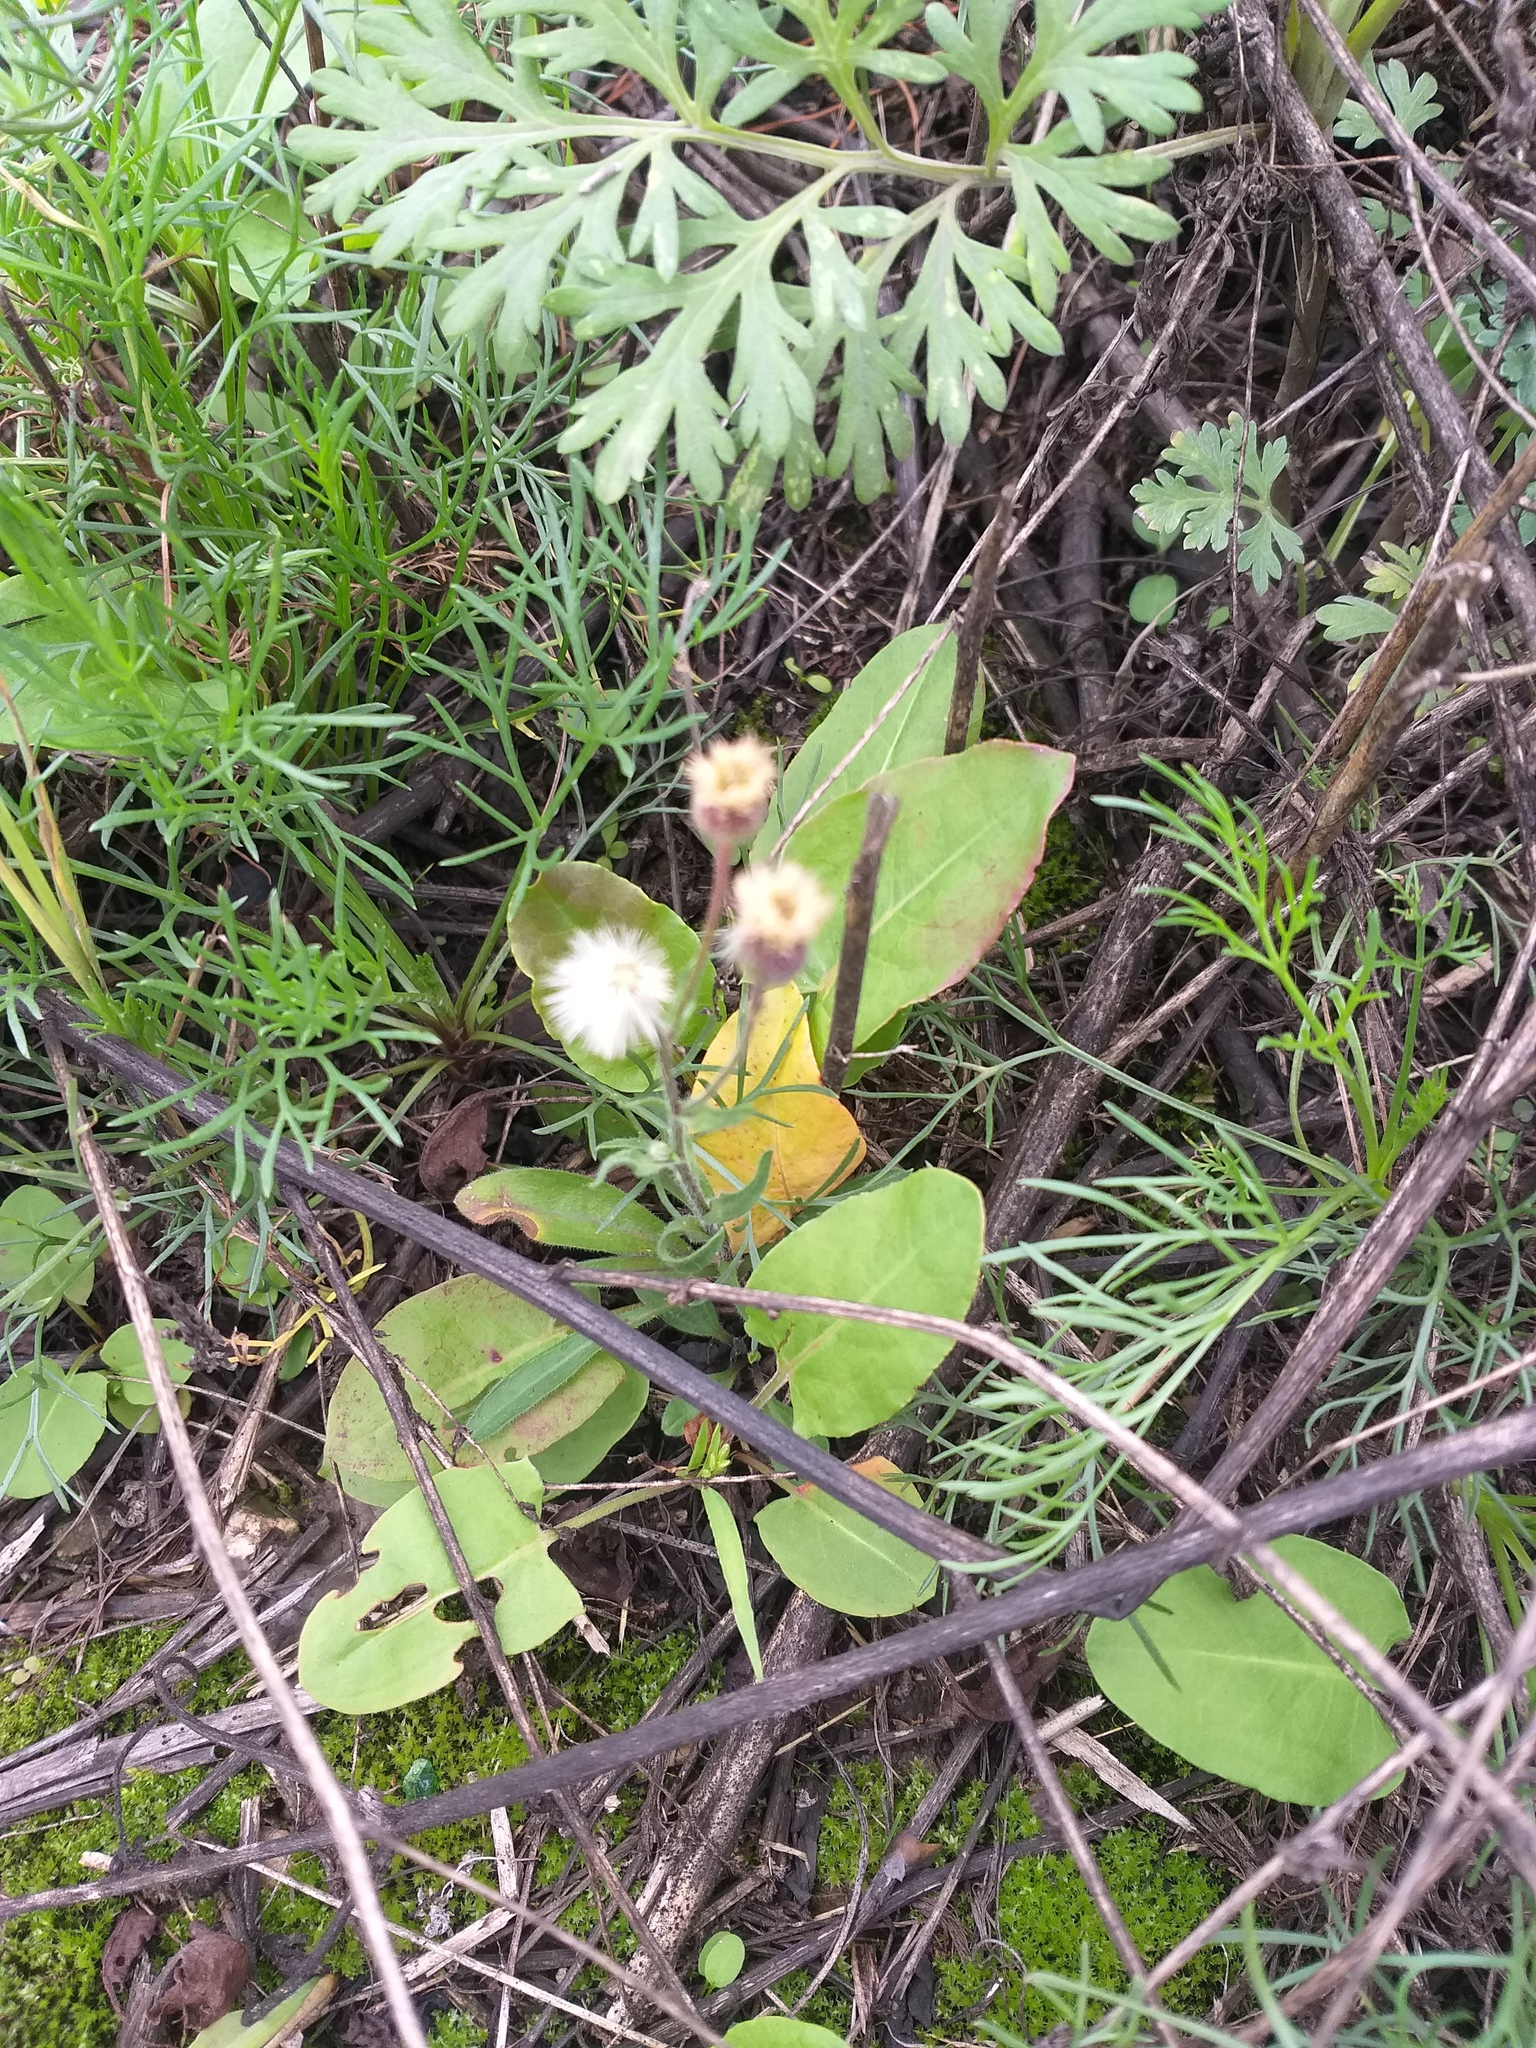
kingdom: Plantae
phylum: Tracheophyta
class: Magnoliopsida
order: Asterales
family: Asteraceae
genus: Erigeron
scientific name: Erigeron acris
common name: Blue fleabane
